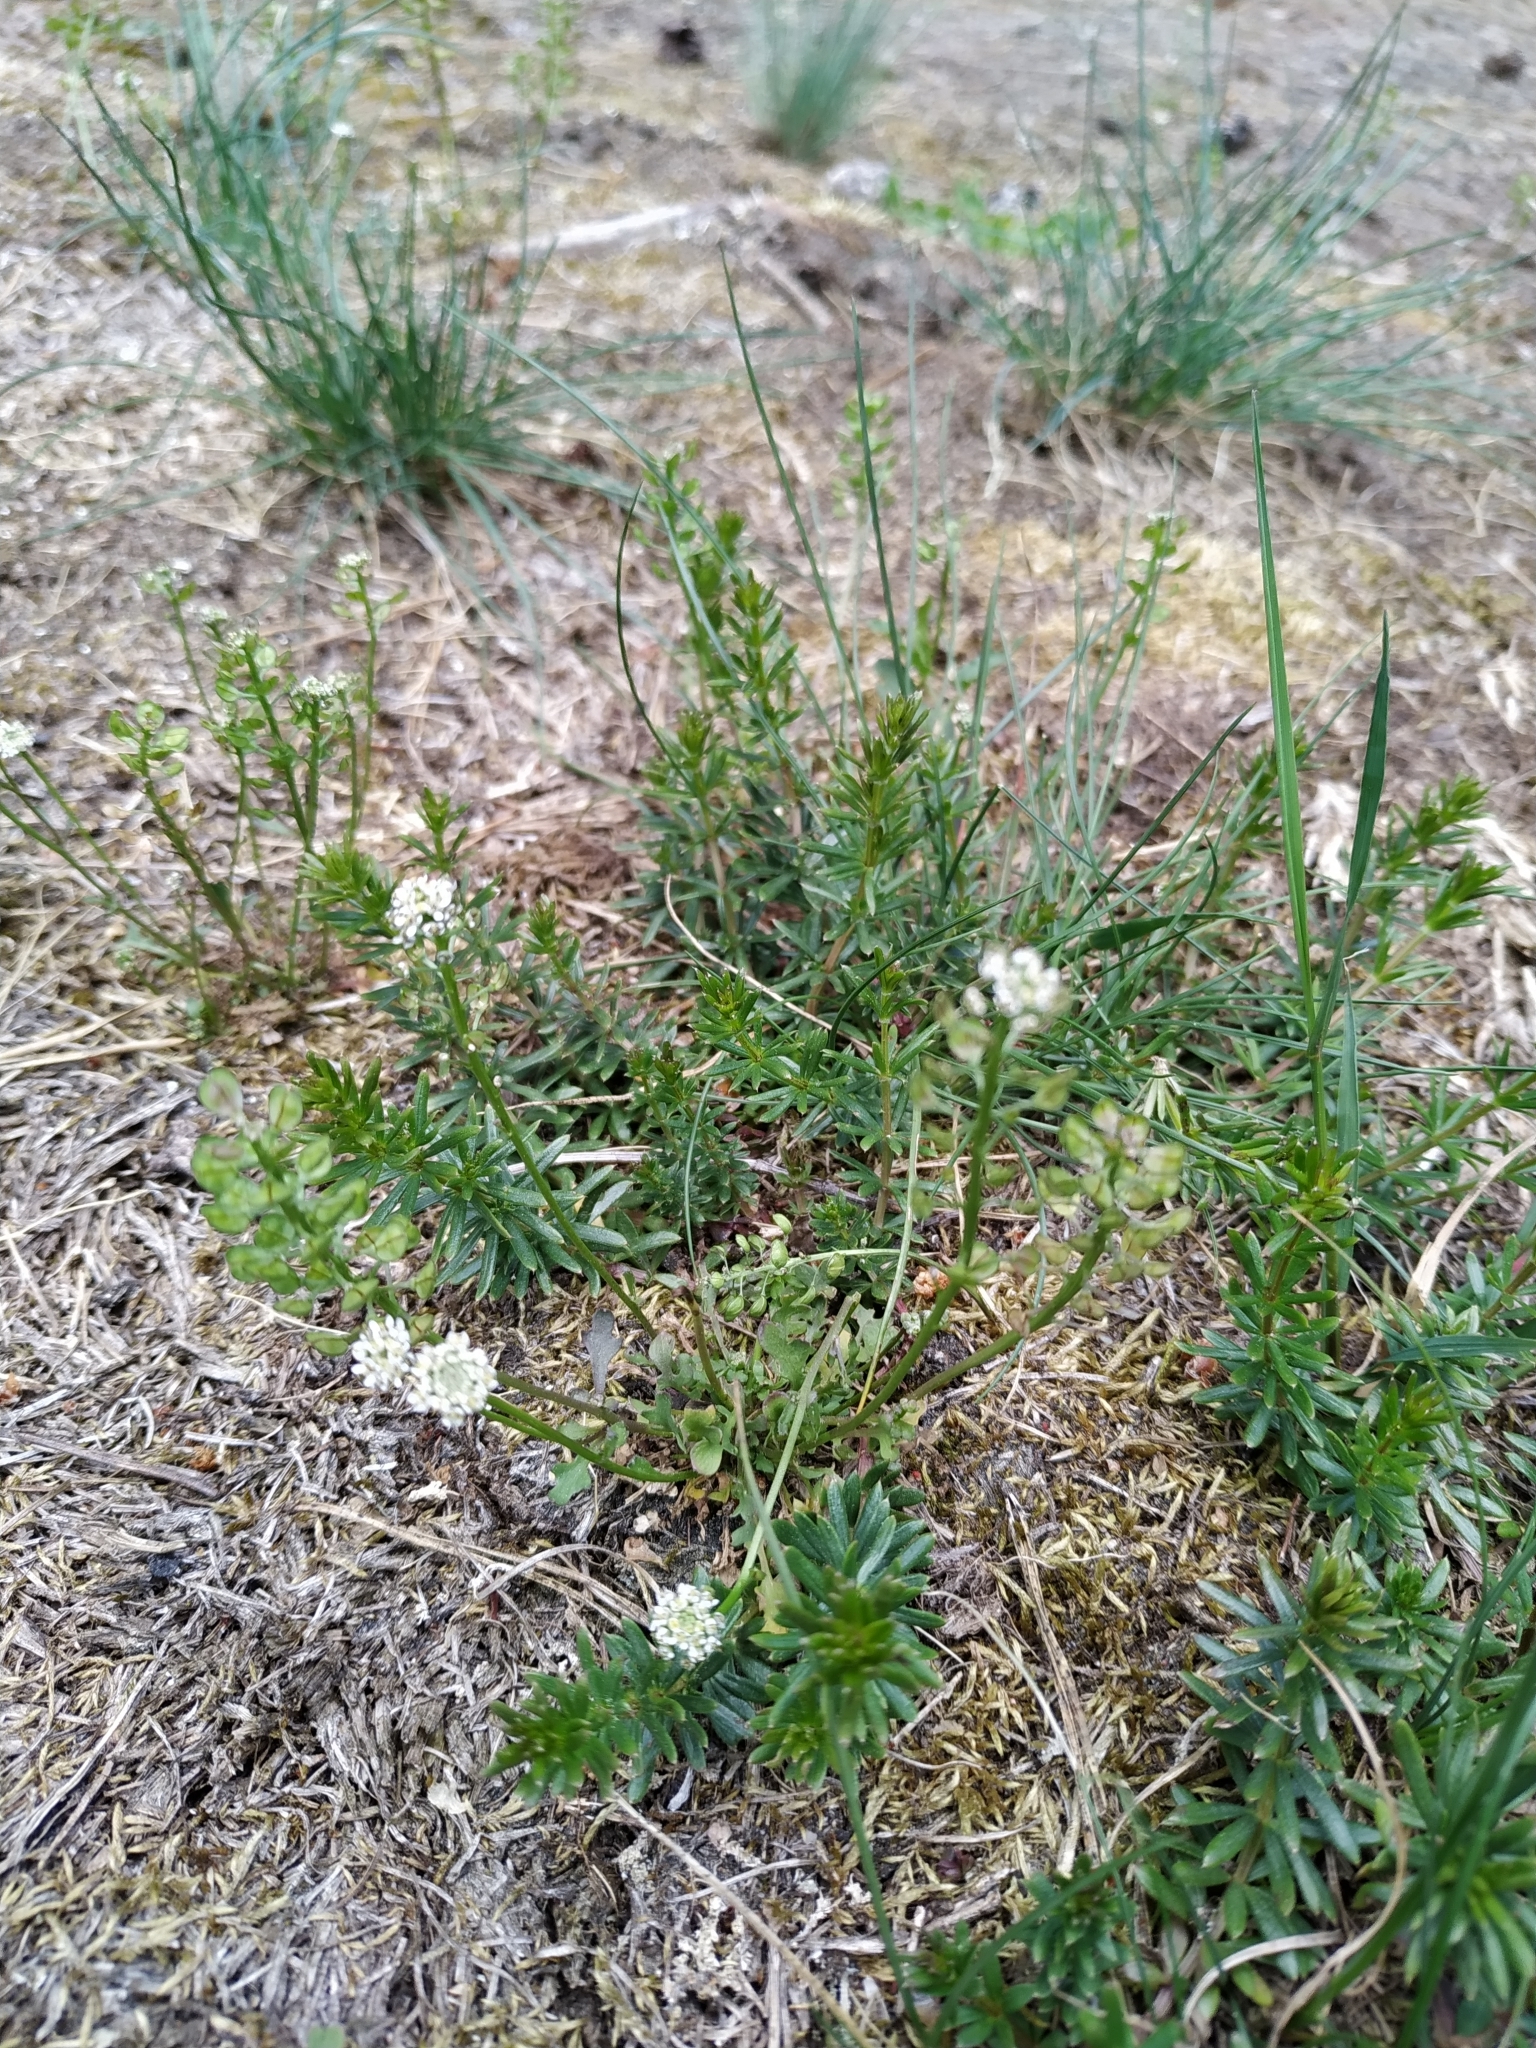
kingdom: Plantae
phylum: Tracheophyta
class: Magnoliopsida
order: Brassicales
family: Brassicaceae
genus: Noccaea
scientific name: Noccaea perfoliata
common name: Perfoliate pennycress
